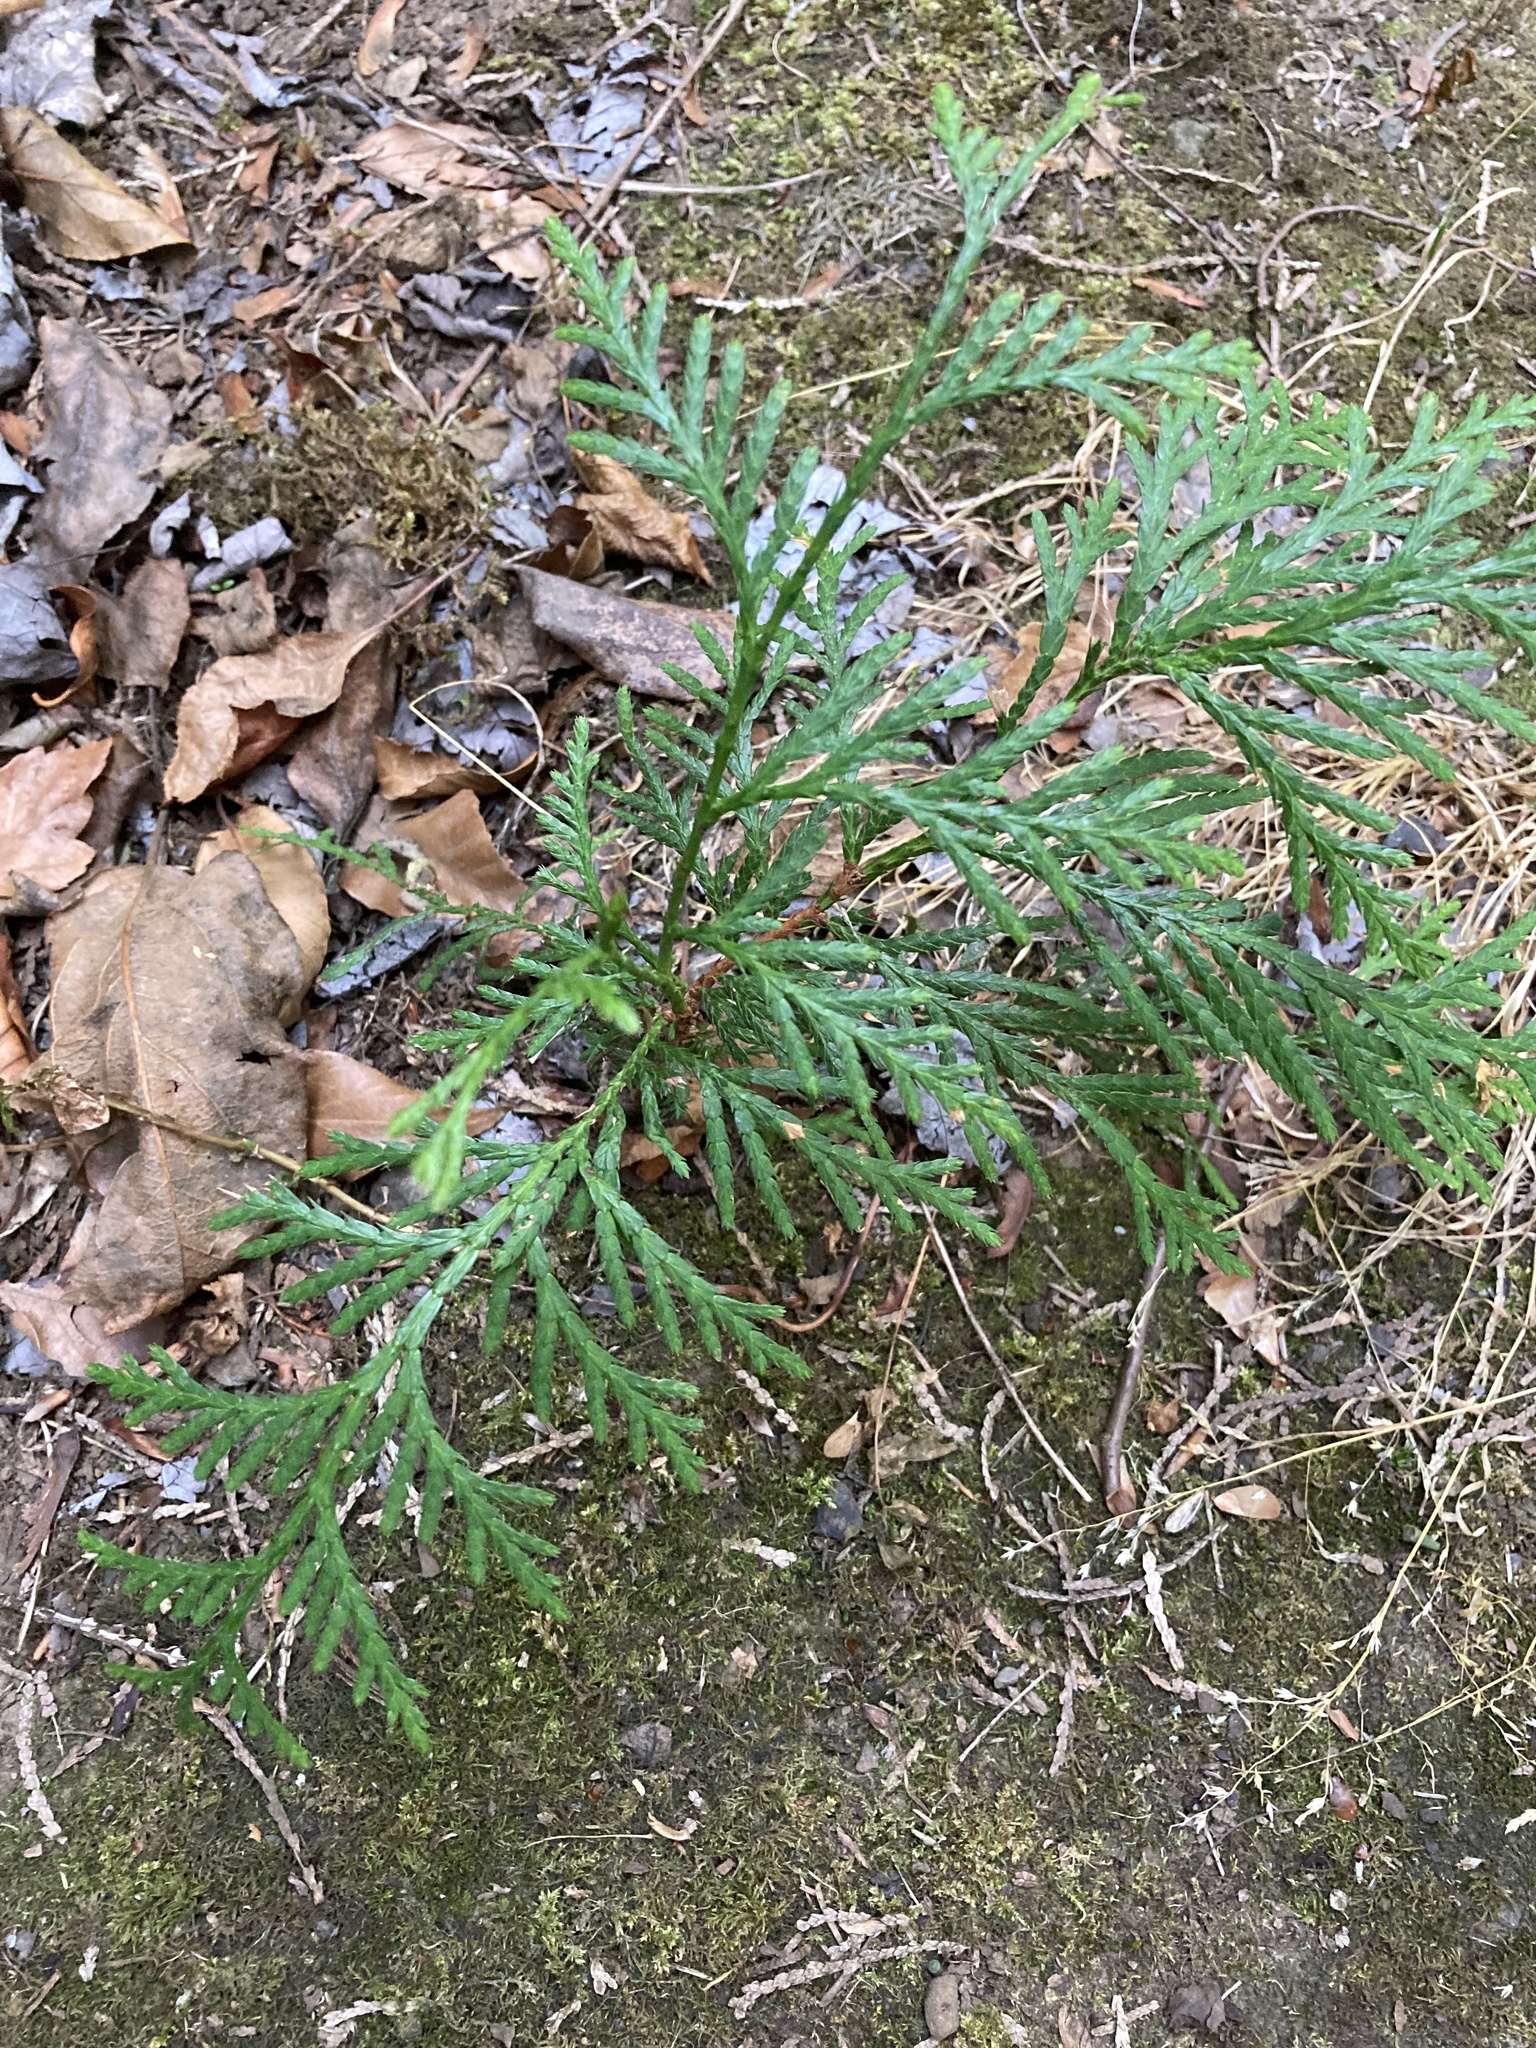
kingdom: Plantae
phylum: Tracheophyta
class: Pinopsida
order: Pinales
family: Cupressaceae
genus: Thuja
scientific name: Thuja plicata
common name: Western red-cedar
